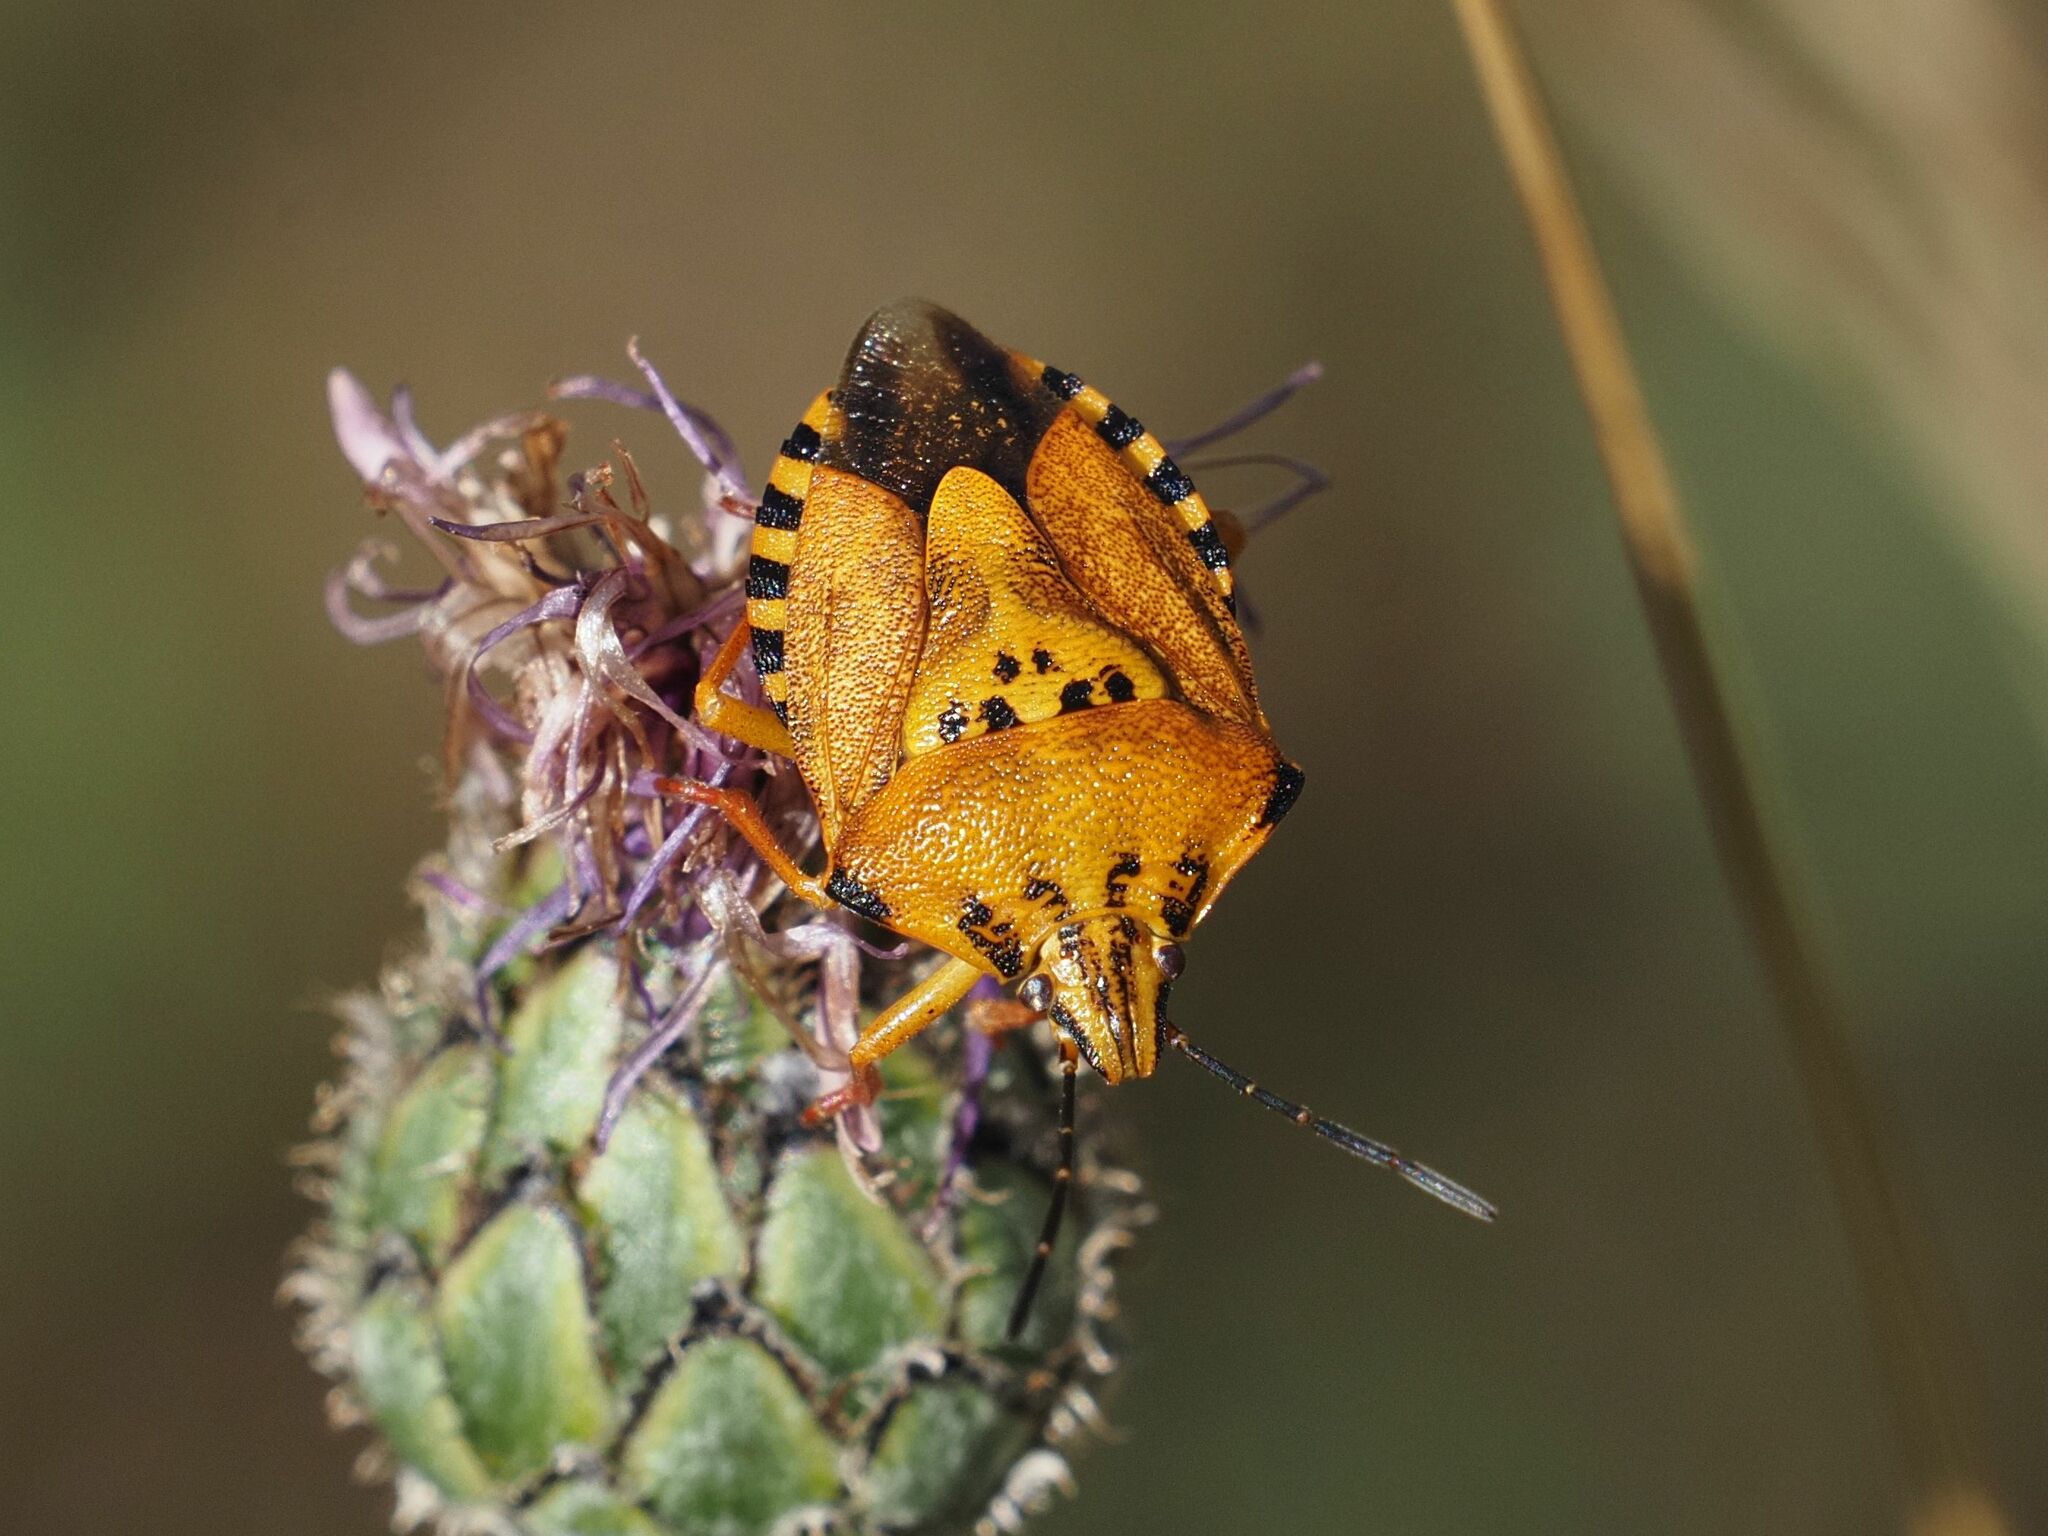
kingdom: Animalia
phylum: Arthropoda
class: Insecta
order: Hemiptera
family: Pentatomidae
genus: Carpocoris
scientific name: Carpocoris purpureipennis
